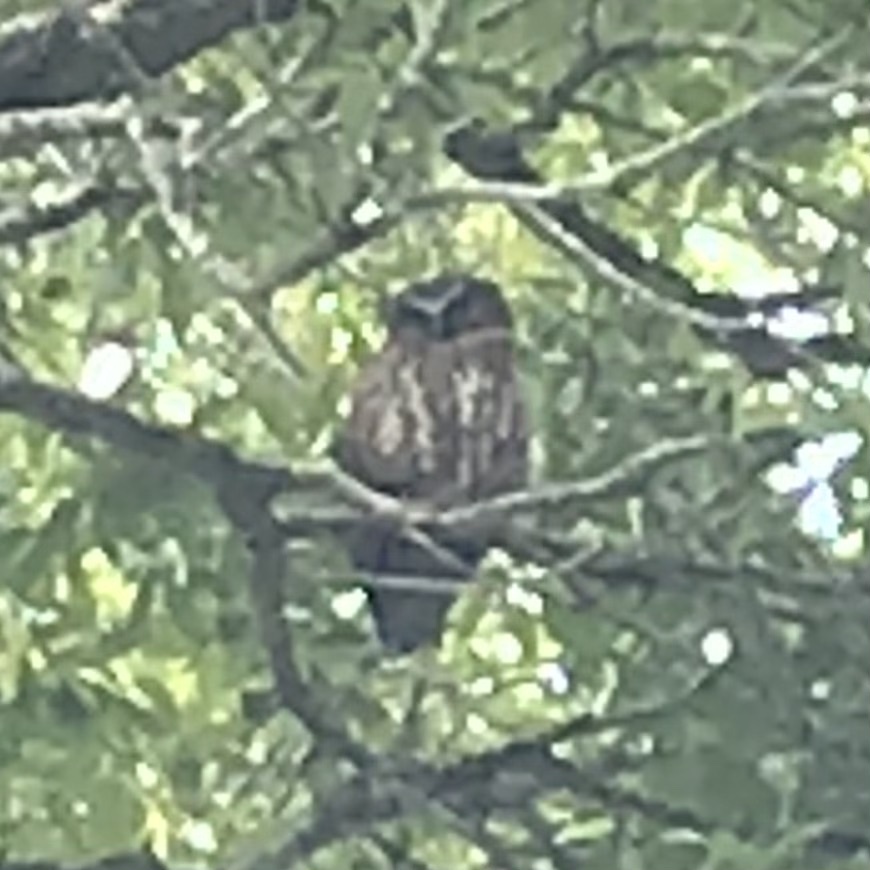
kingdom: Animalia
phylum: Chordata
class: Aves
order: Strigiformes
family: Strigidae
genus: Ninox
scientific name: Ninox boobook
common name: Southern boobook
